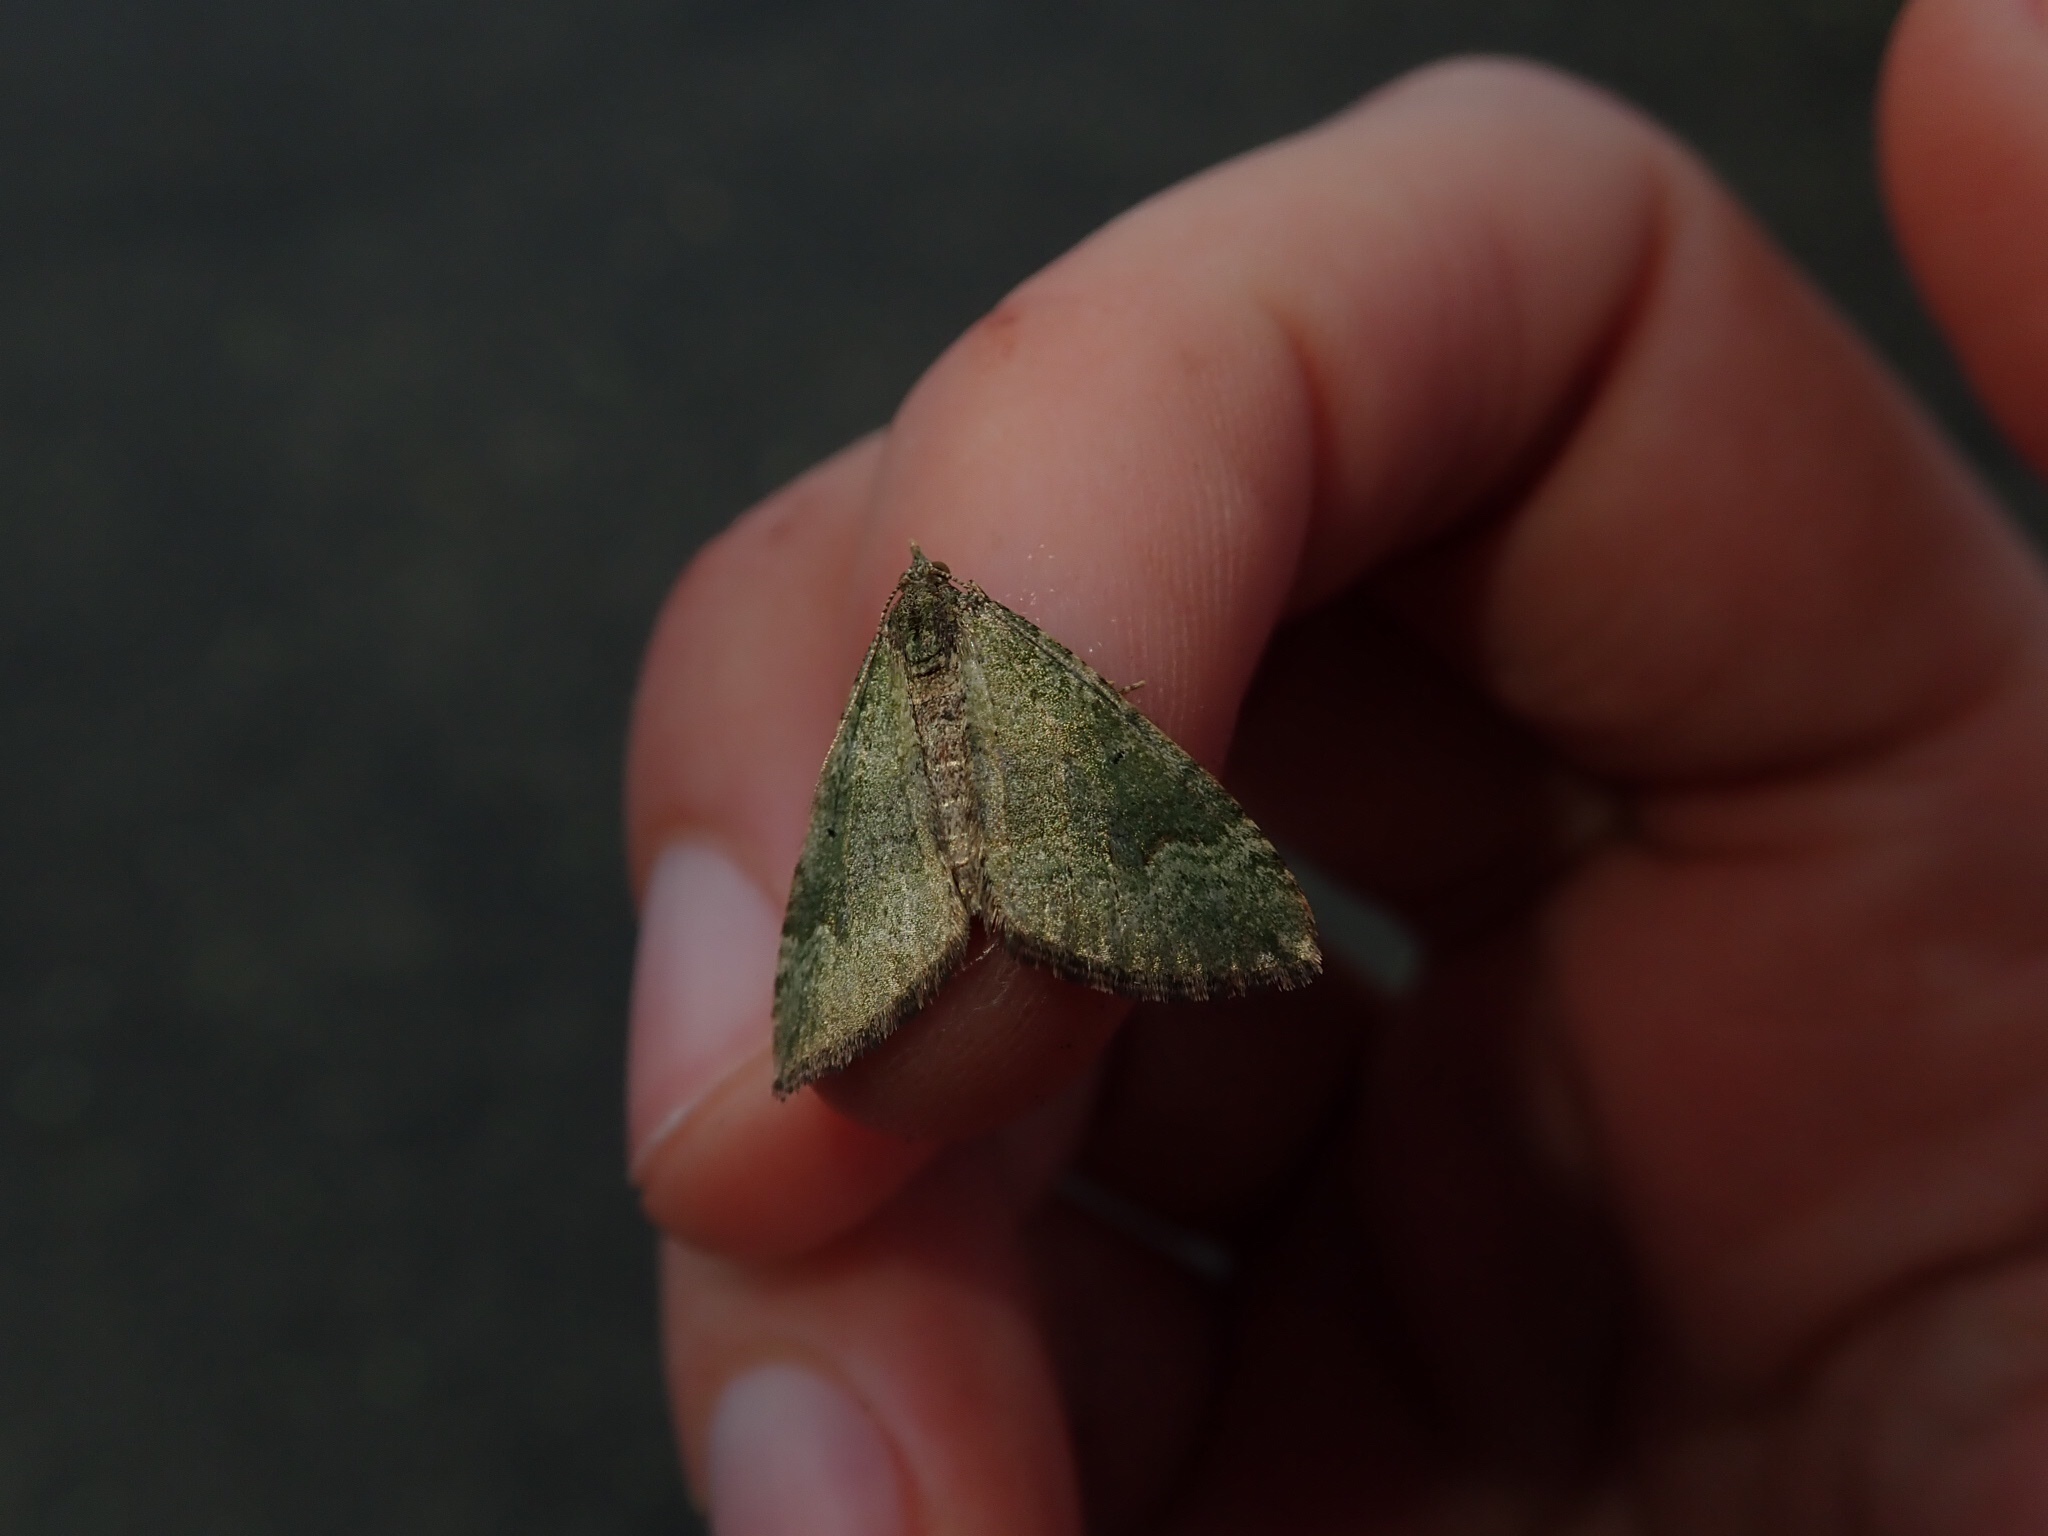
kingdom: Animalia
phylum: Arthropoda
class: Insecta
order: Lepidoptera
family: Geometridae
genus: Epyaxa
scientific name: Epyaxa rosearia
